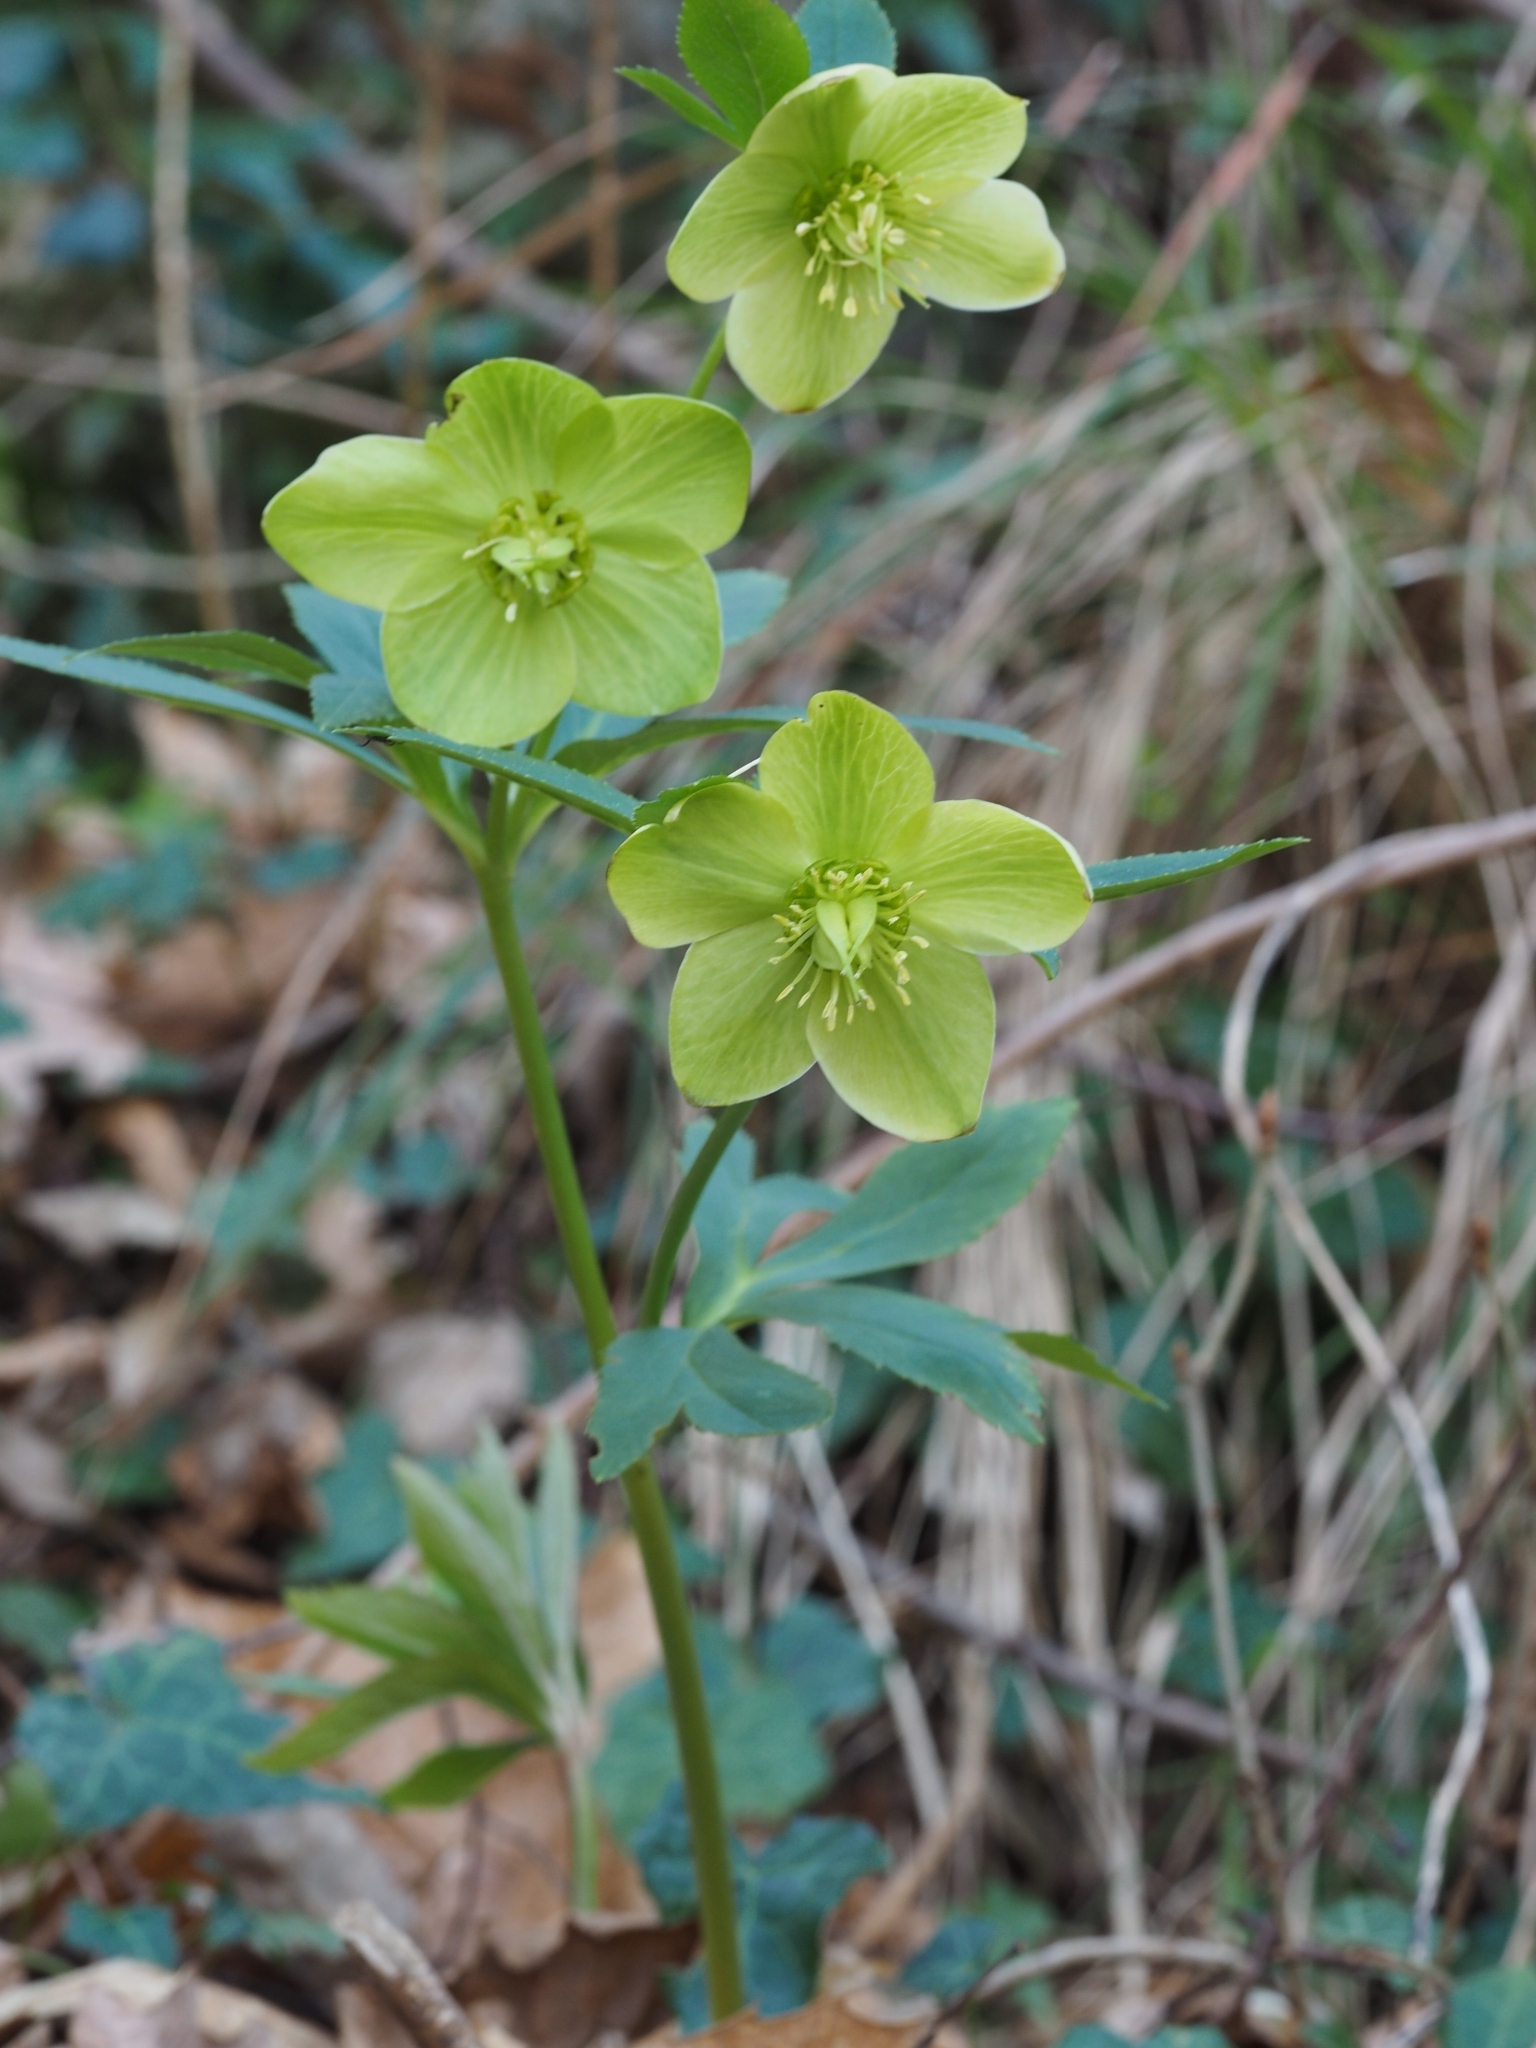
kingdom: Plantae
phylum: Tracheophyta
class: Magnoliopsida
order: Ranunculales
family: Ranunculaceae
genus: Helleborus
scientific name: Helleborus viridis
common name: Green hellebore
